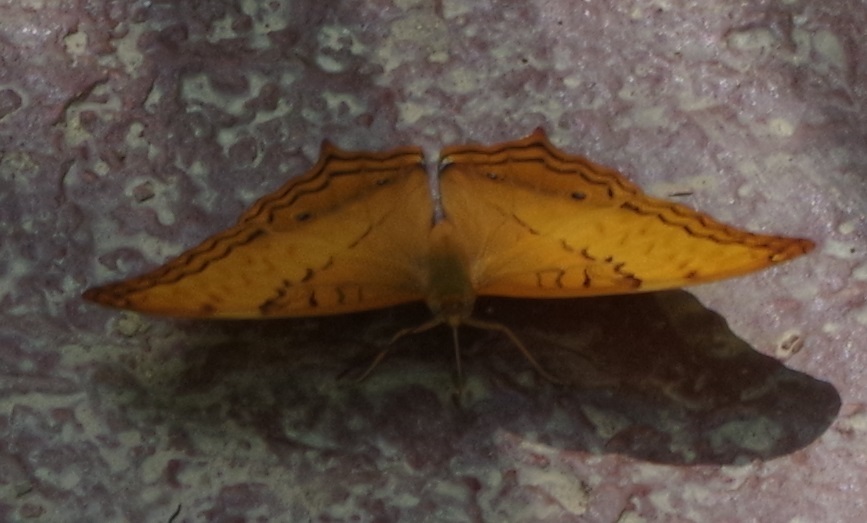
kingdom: Animalia
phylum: Arthropoda
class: Insecta
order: Lepidoptera
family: Nymphalidae
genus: Vindula
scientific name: Vindula erota
